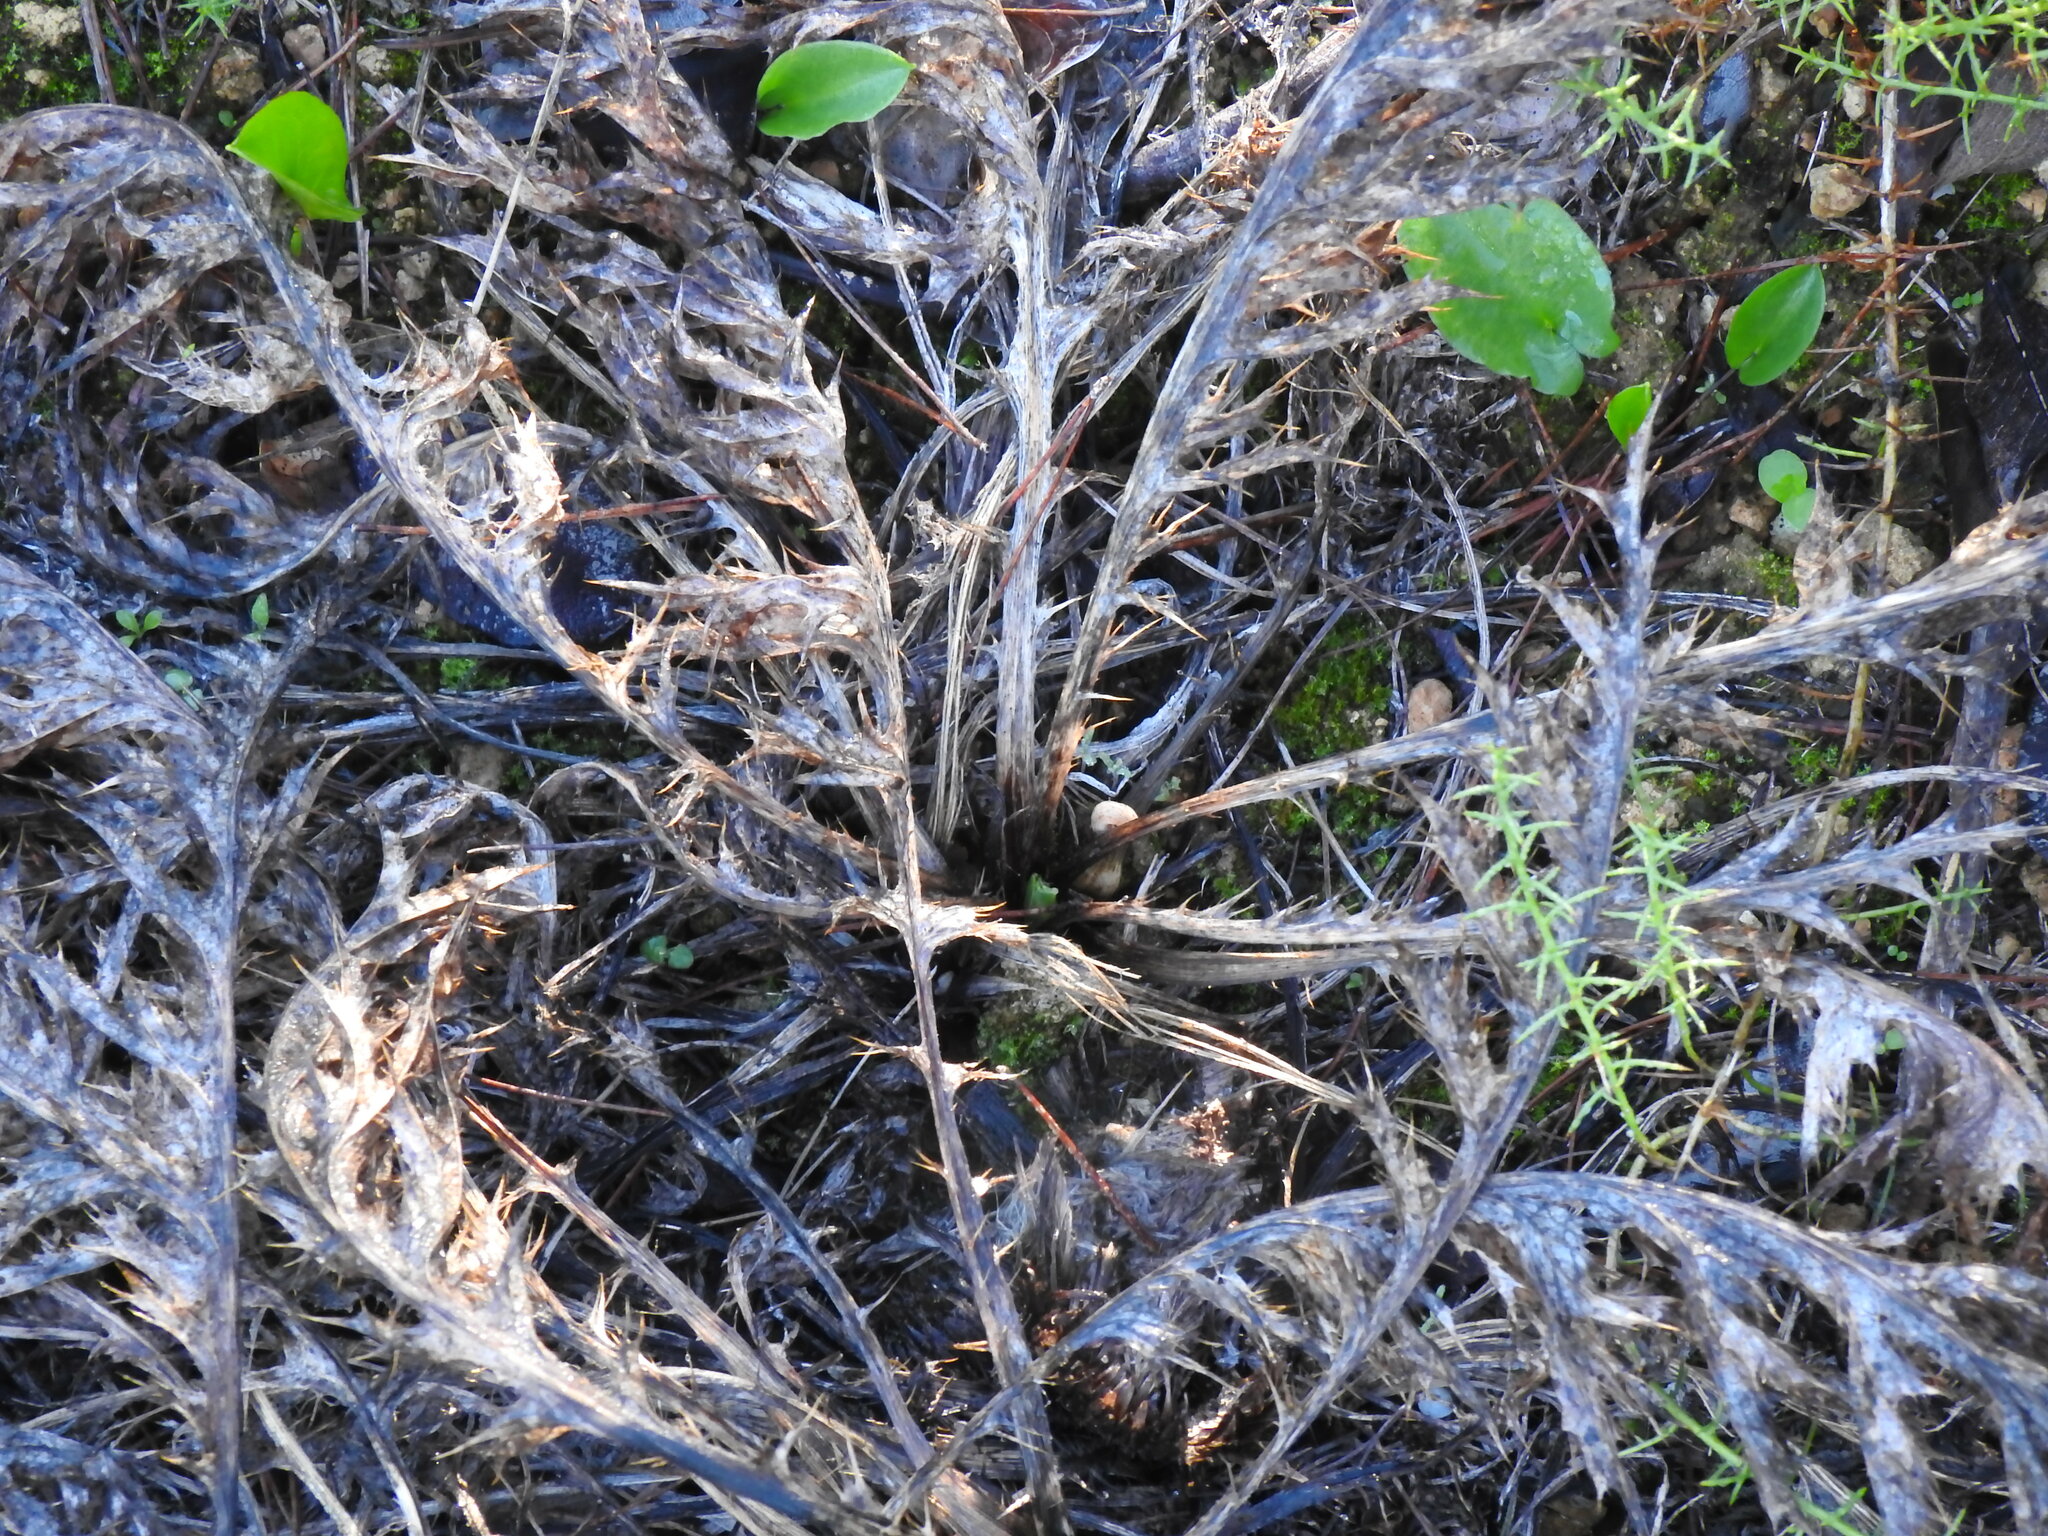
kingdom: Plantae
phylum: Tracheophyta
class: Magnoliopsida
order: Asterales
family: Asteraceae
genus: Chamaeleon
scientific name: Chamaeleon gummifer
